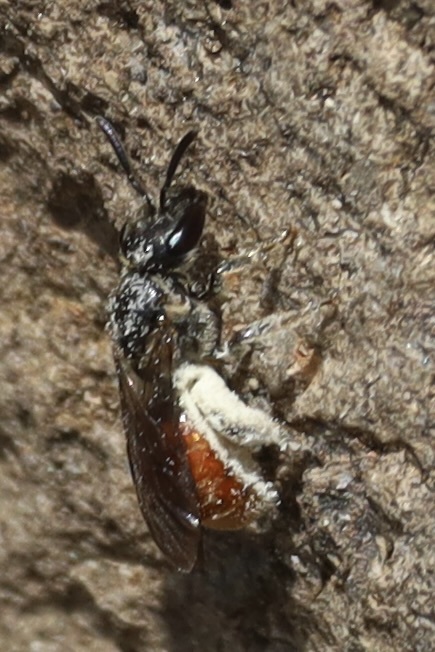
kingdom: Animalia
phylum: Arthropoda
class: Insecta
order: Hymenoptera
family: Halictidae
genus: Lasioglossum
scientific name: Lasioglossum ovaliceps
